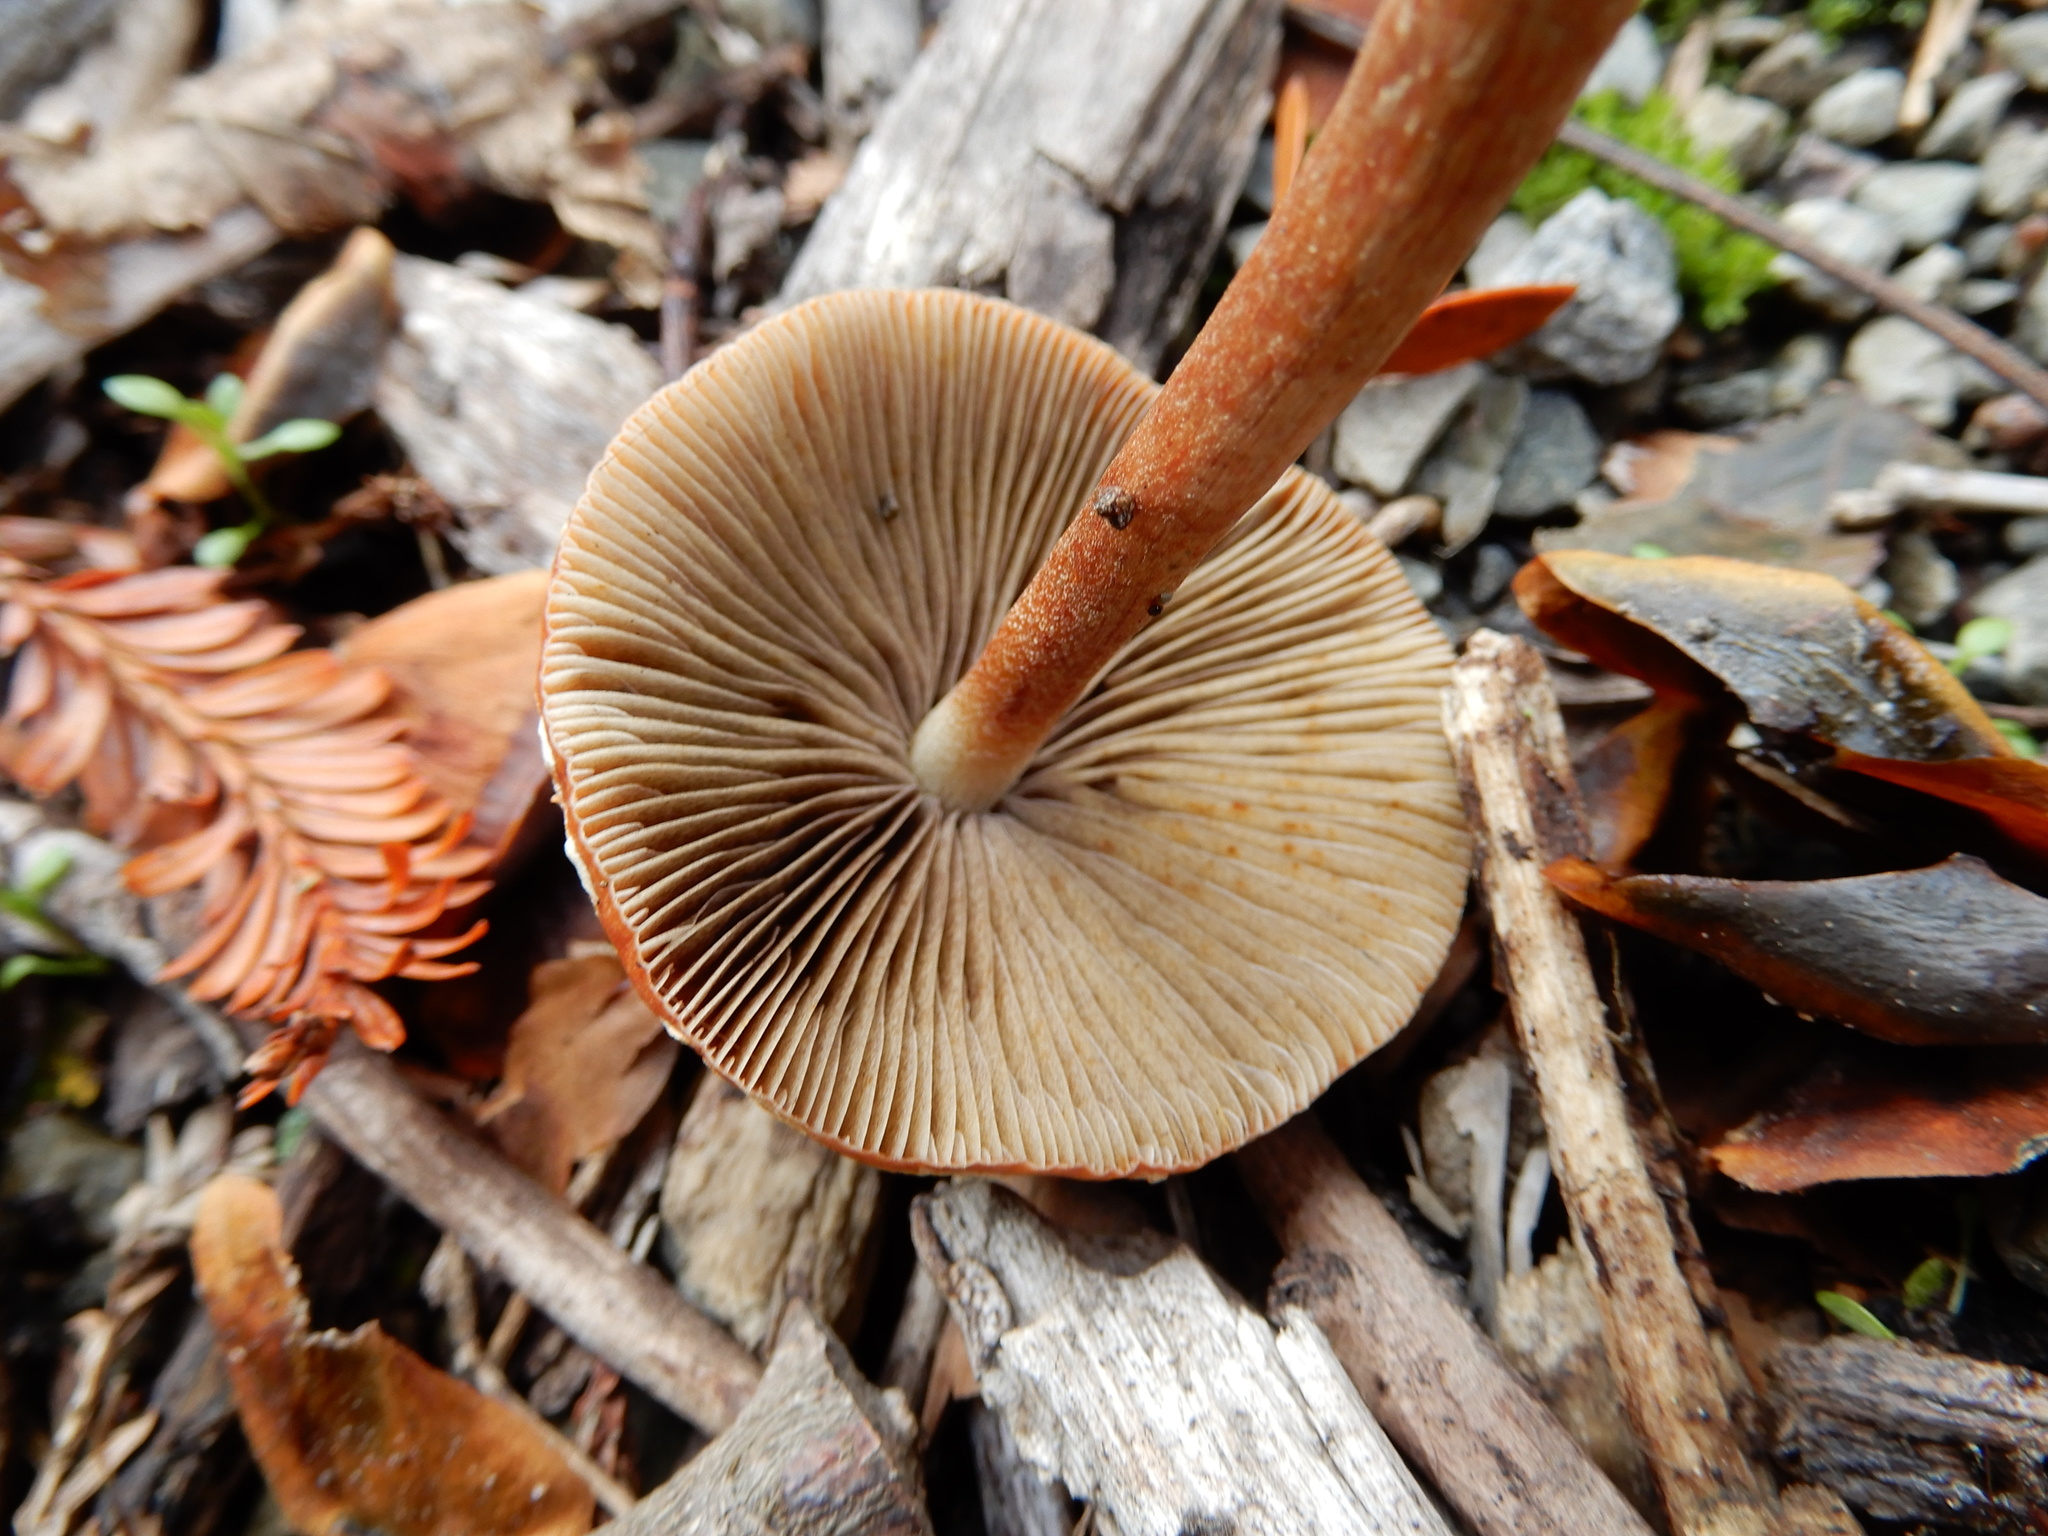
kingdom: Fungi
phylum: Basidiomycota
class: Agaricomycetes
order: Agaricales
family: Strophariaceae
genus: Leratiomyces
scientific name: Leratiomyces ceres
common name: Redlead roundhead
